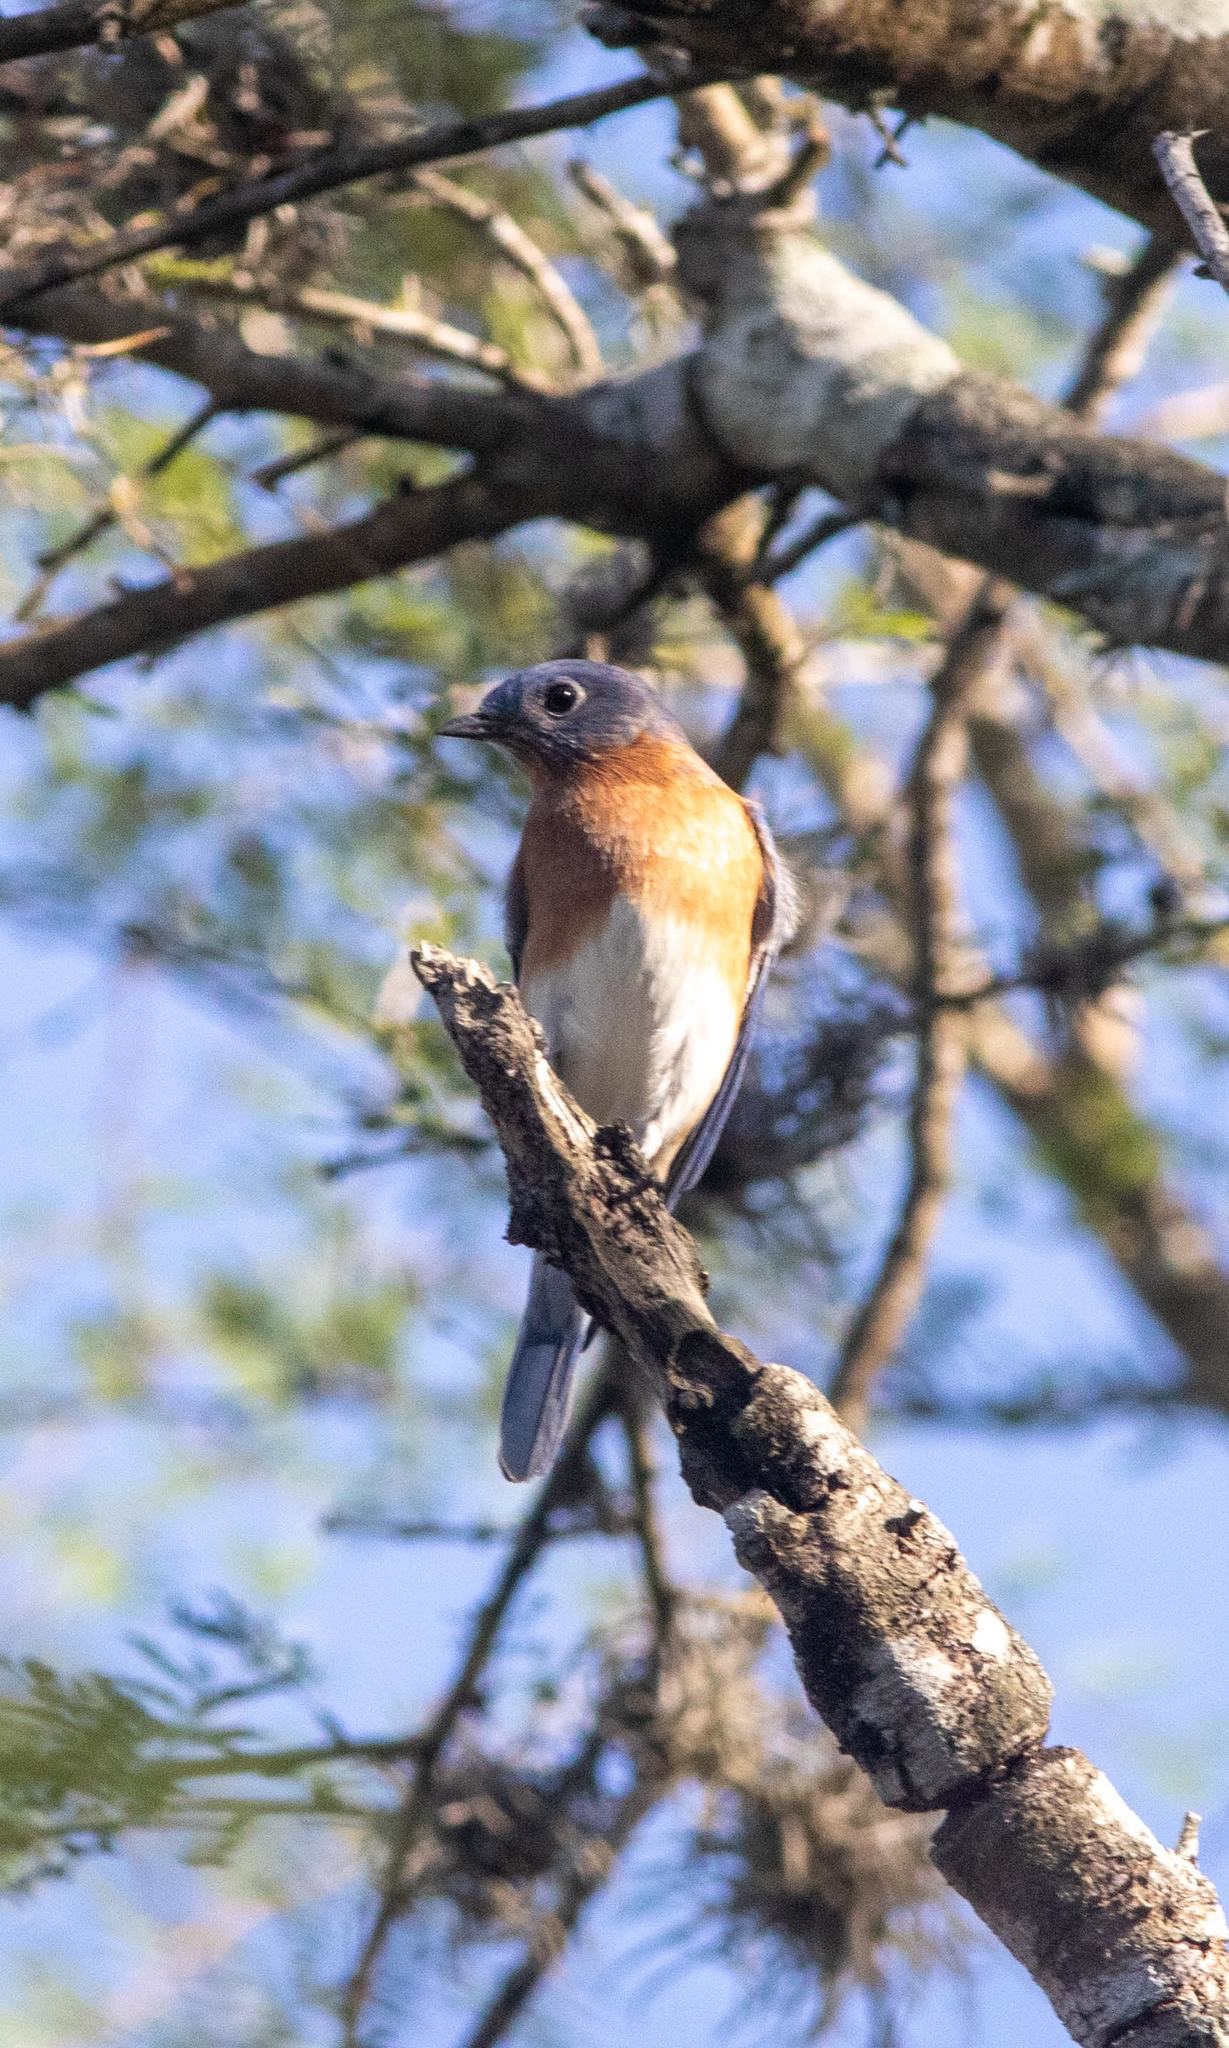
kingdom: Animalia
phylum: Chordata
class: Aves
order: Passeriformes
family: Turdidae
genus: Sialia
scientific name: Sialia sialis
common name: Eastern bluebird
